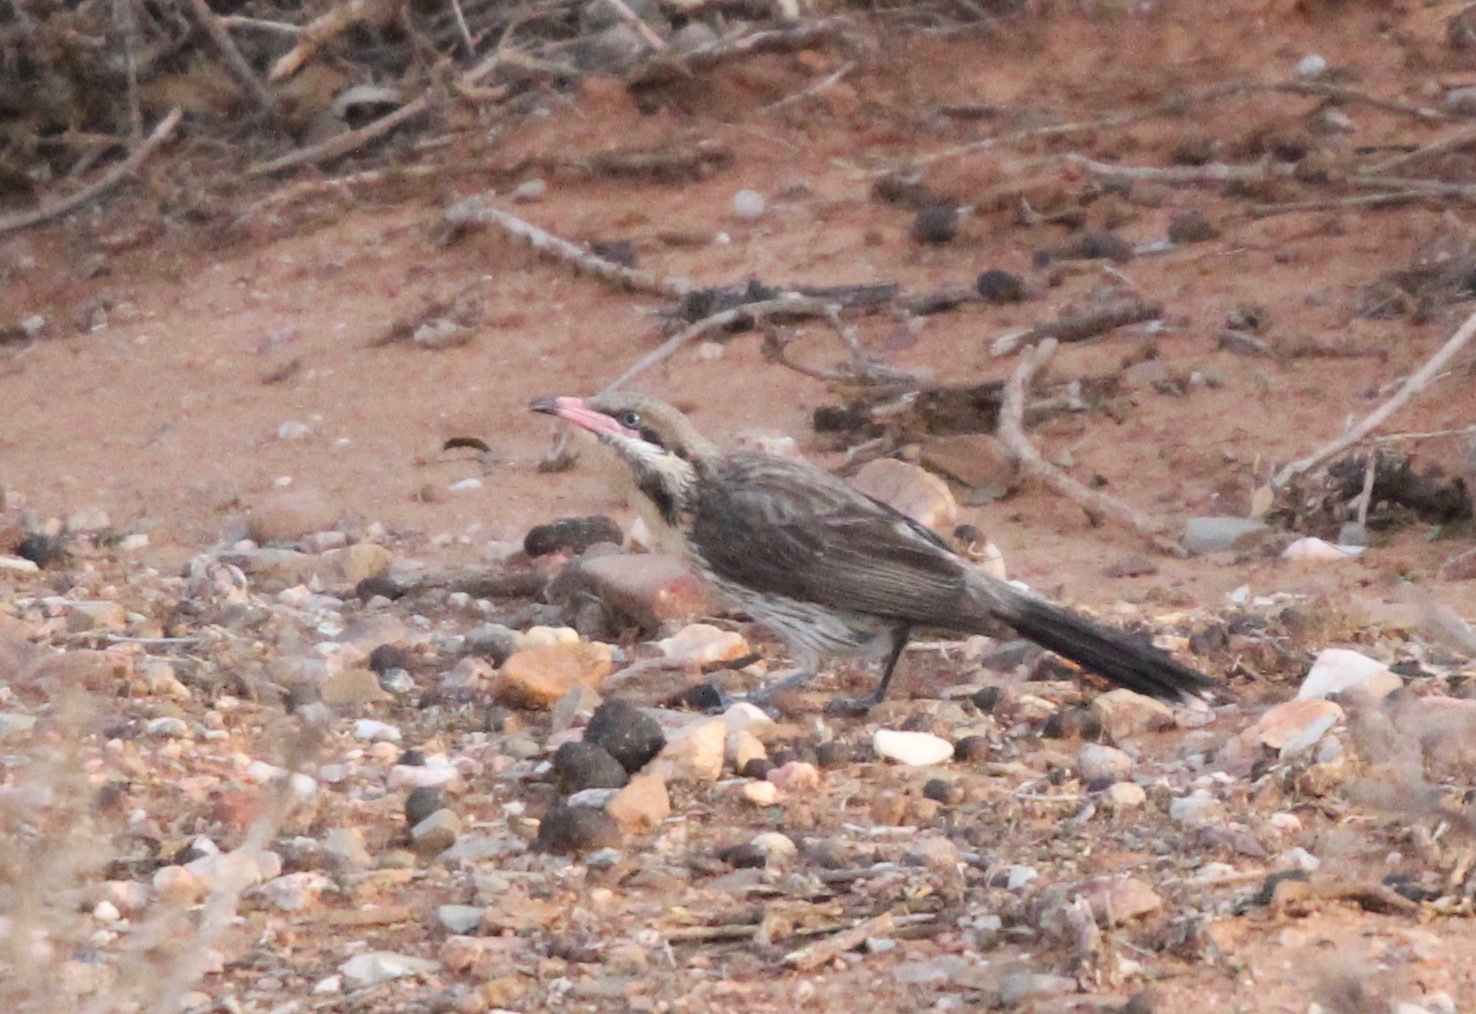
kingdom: Animalia
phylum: Chordata
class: Aves
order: Passeriformes
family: Meliphagidae
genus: Acanthagenys
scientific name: Acanthagenys rufogularis
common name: Spiny-cheeked honeyeater
